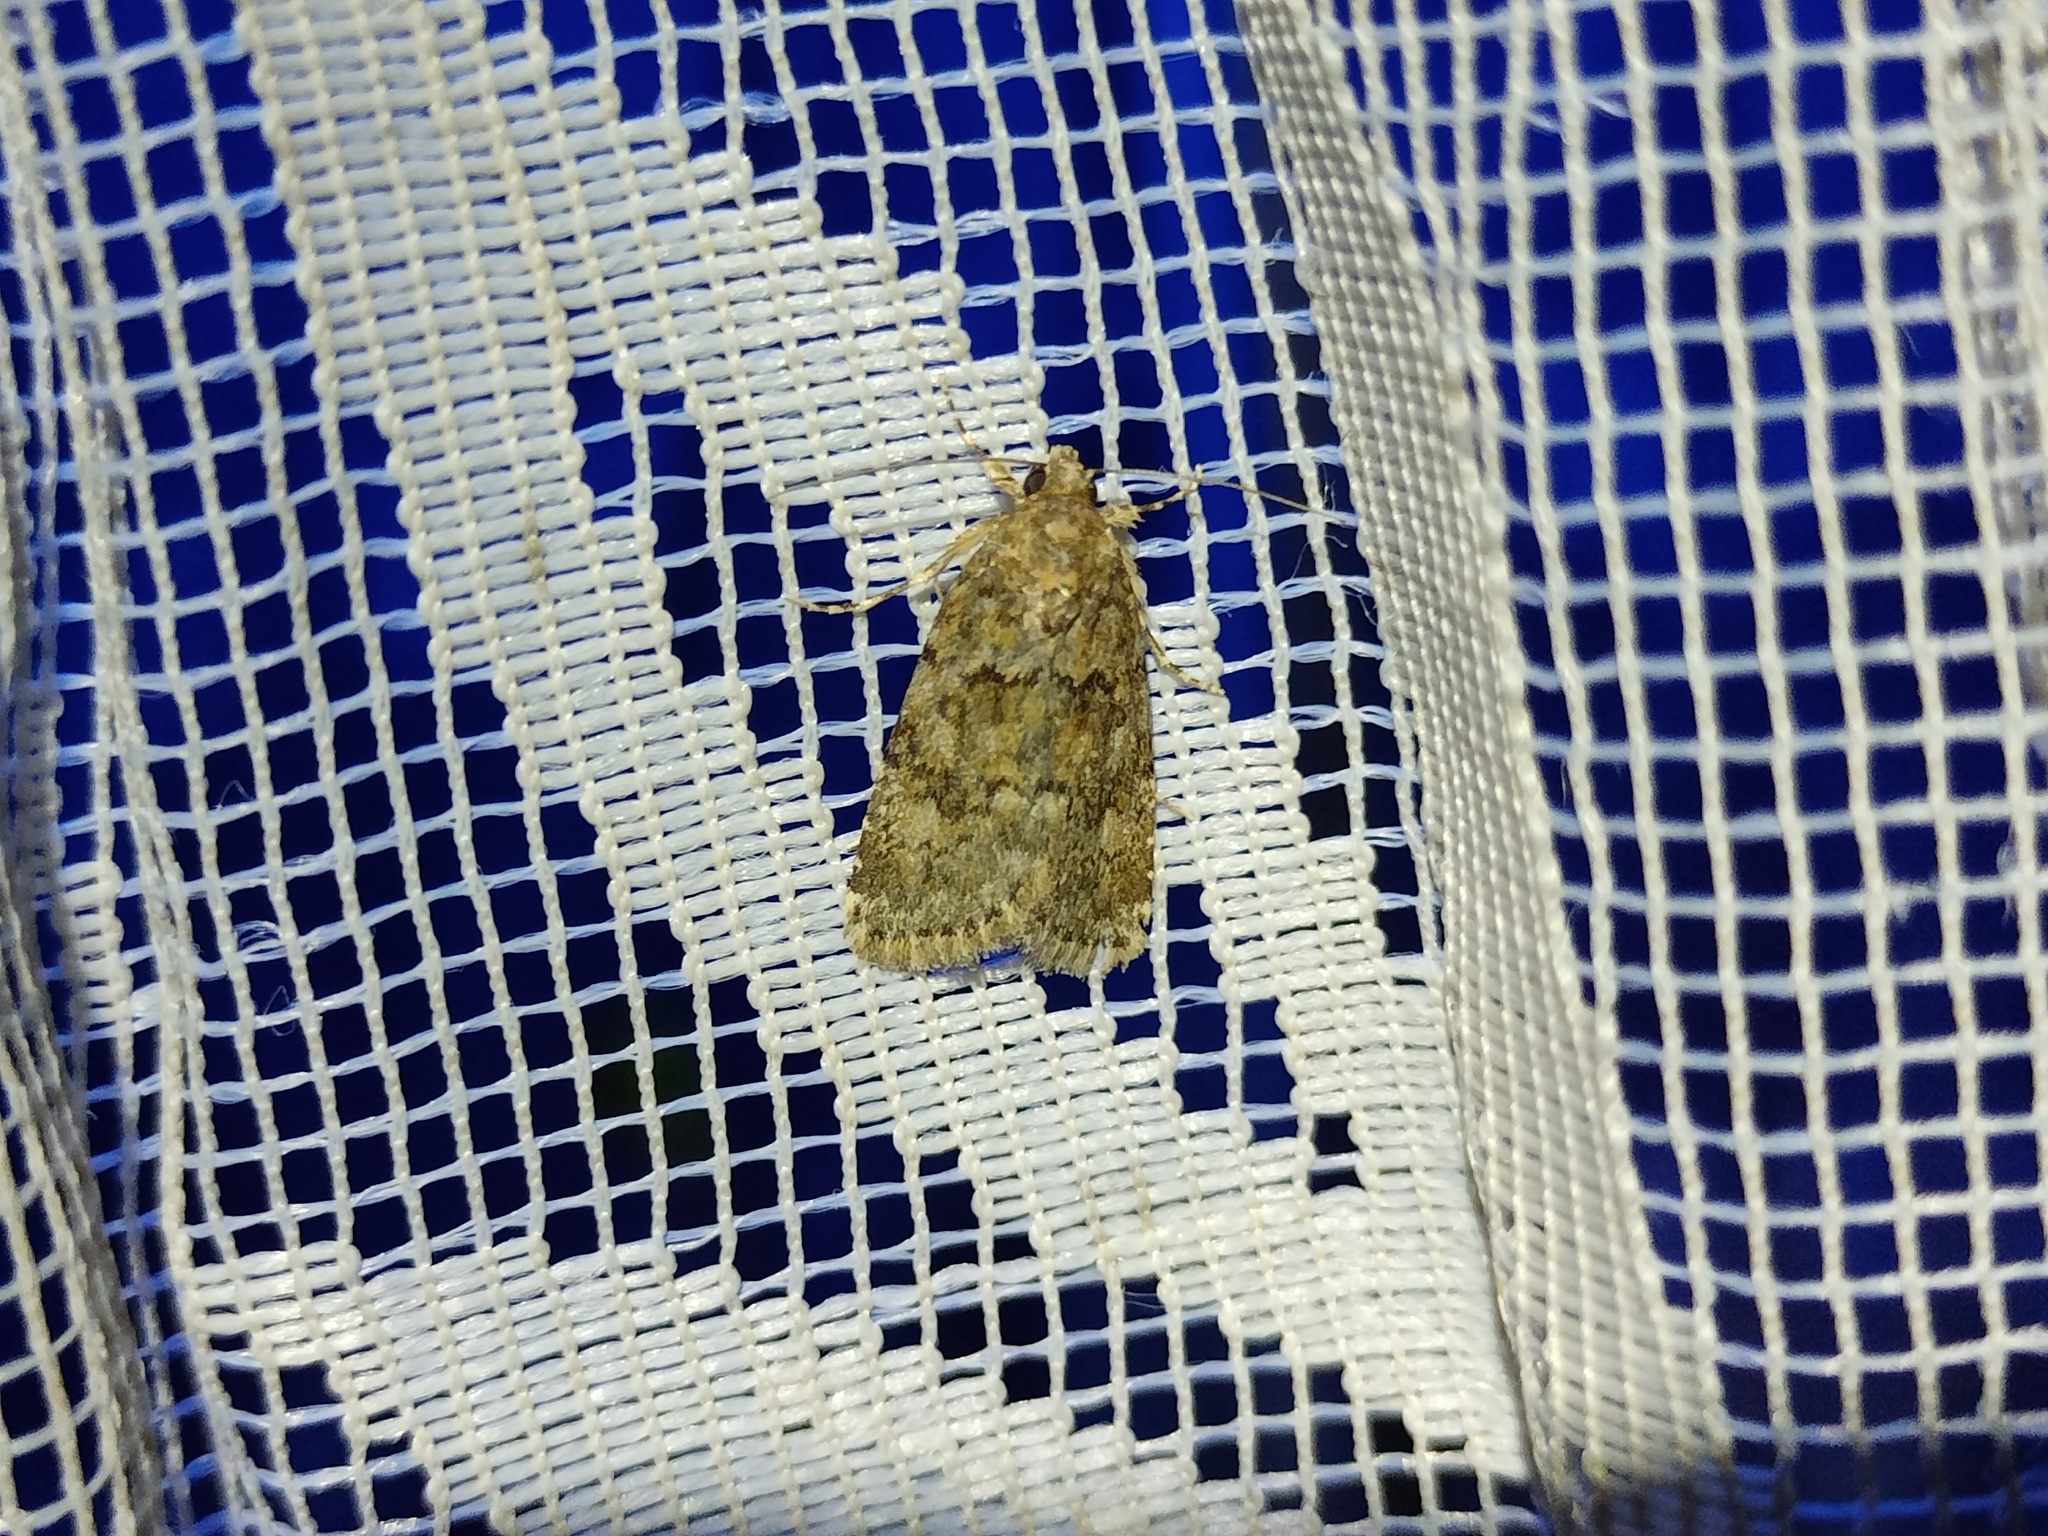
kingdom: Animalia
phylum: Arthropoda
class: Insecta
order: Lepidoptera
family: Noctuidae
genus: Nyctobrya
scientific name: Nyctobrya simonyi
